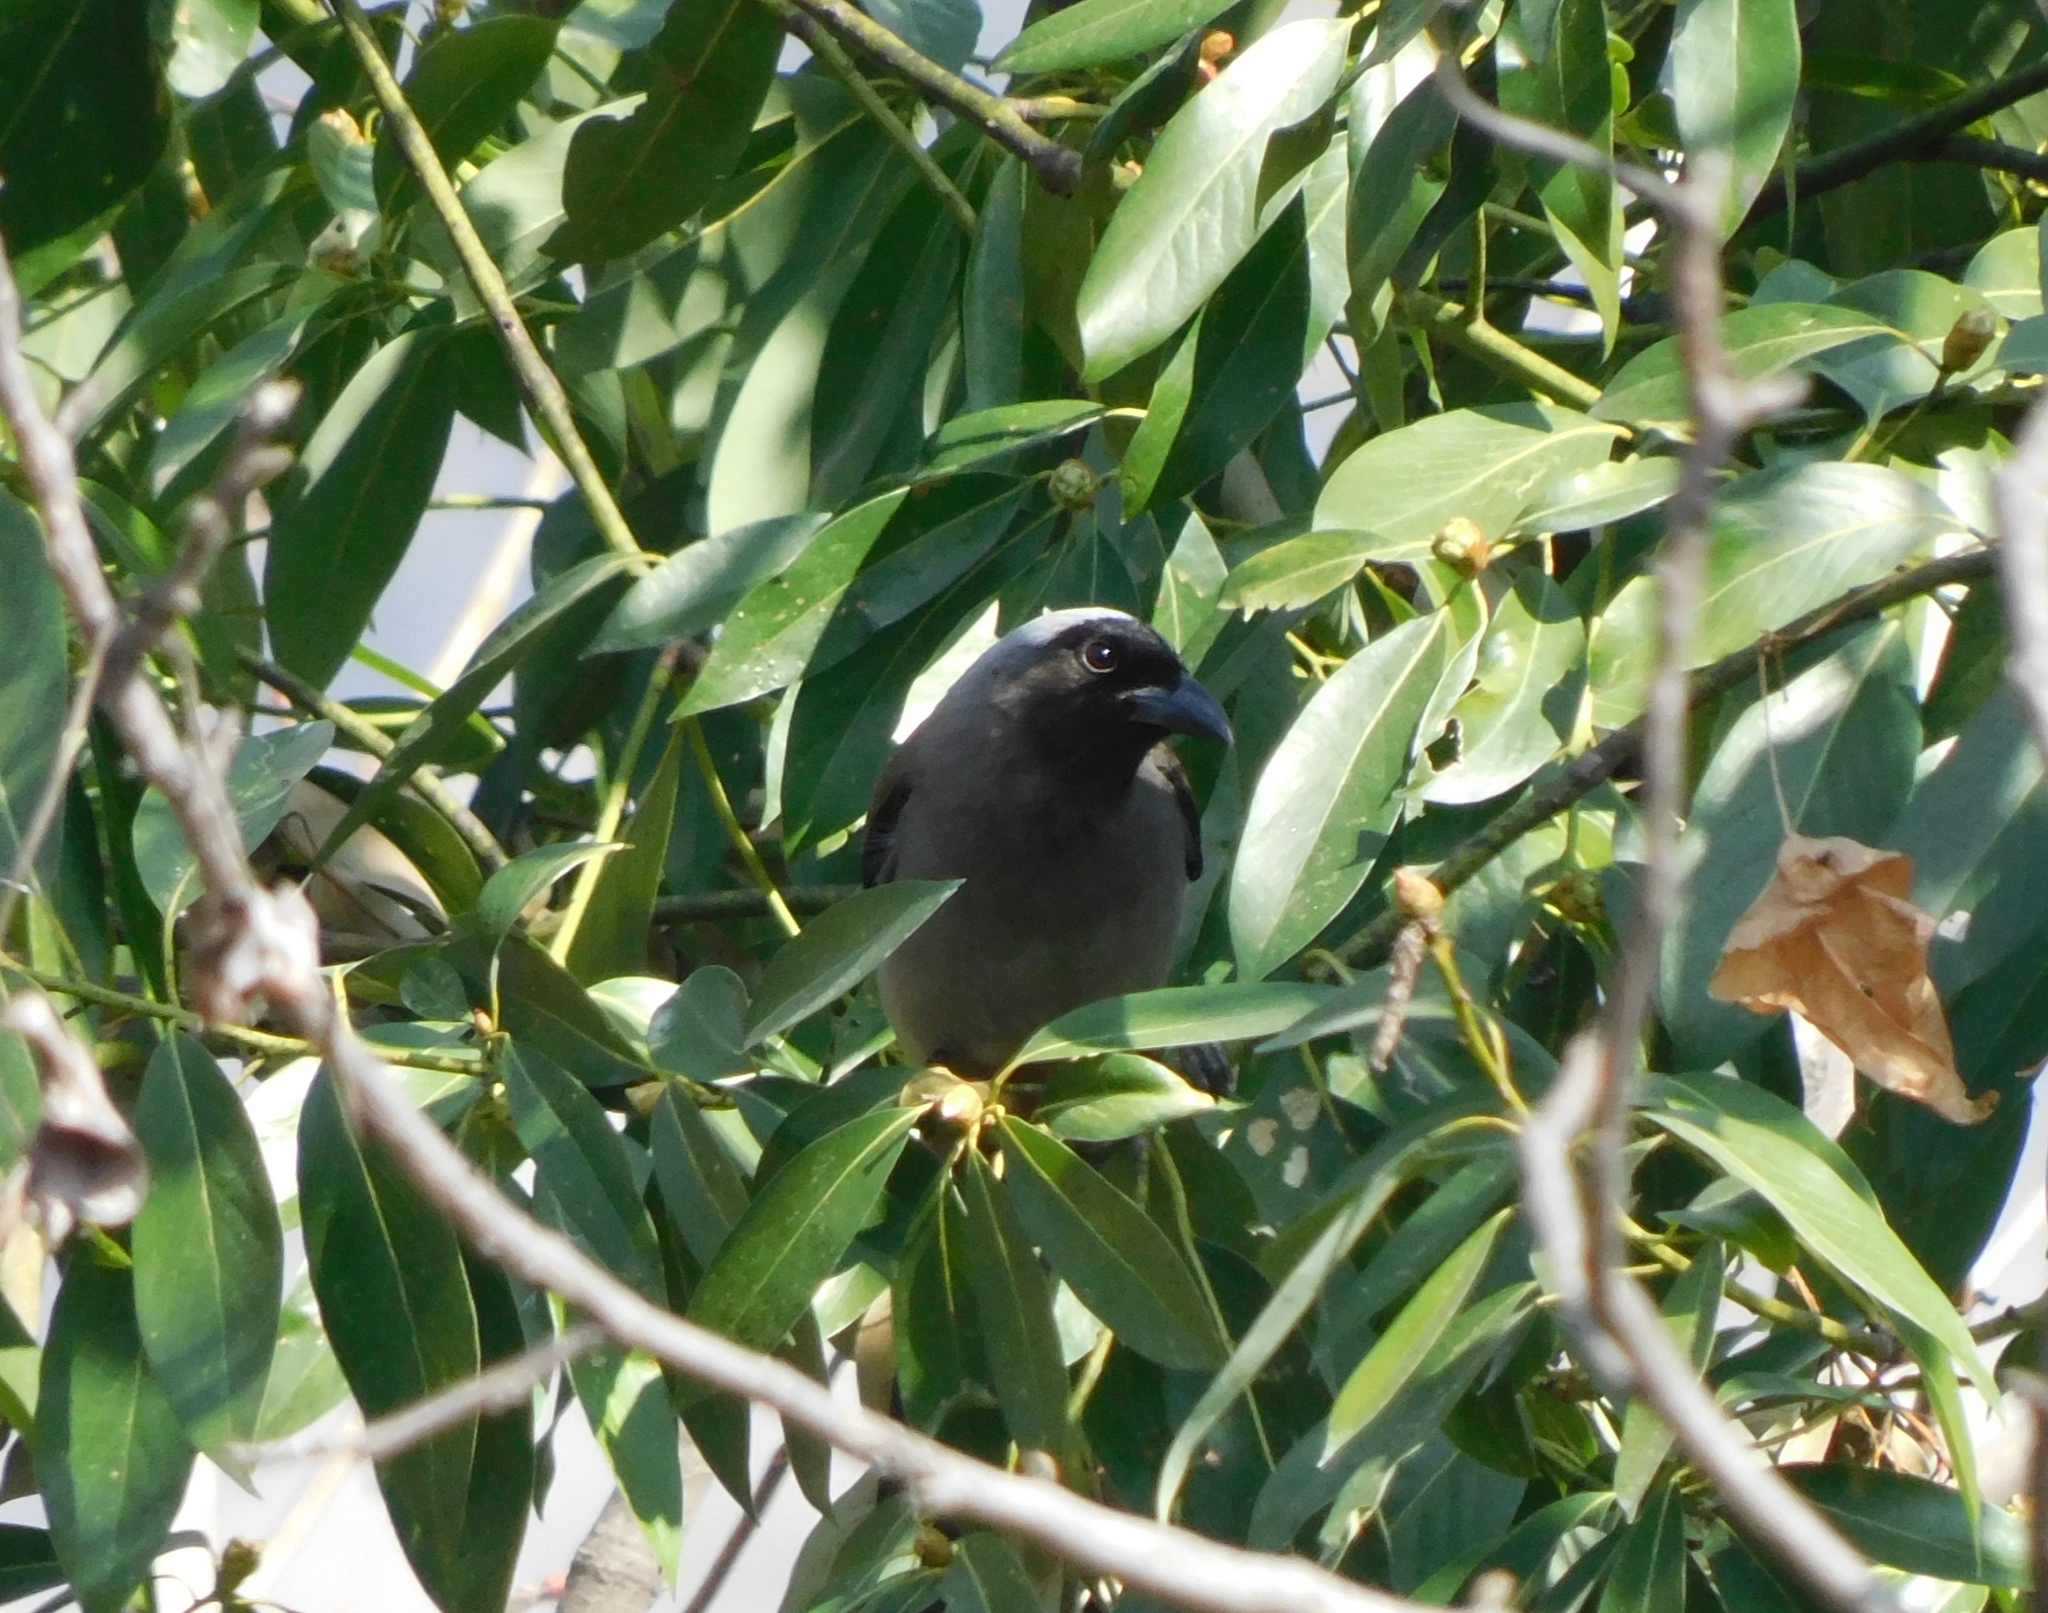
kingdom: Animalia
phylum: Chordata
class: Aves
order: Passeriformes
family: Corvidae
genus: Dendrocitta
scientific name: Dendrocitta formosae
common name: Grey treepie
